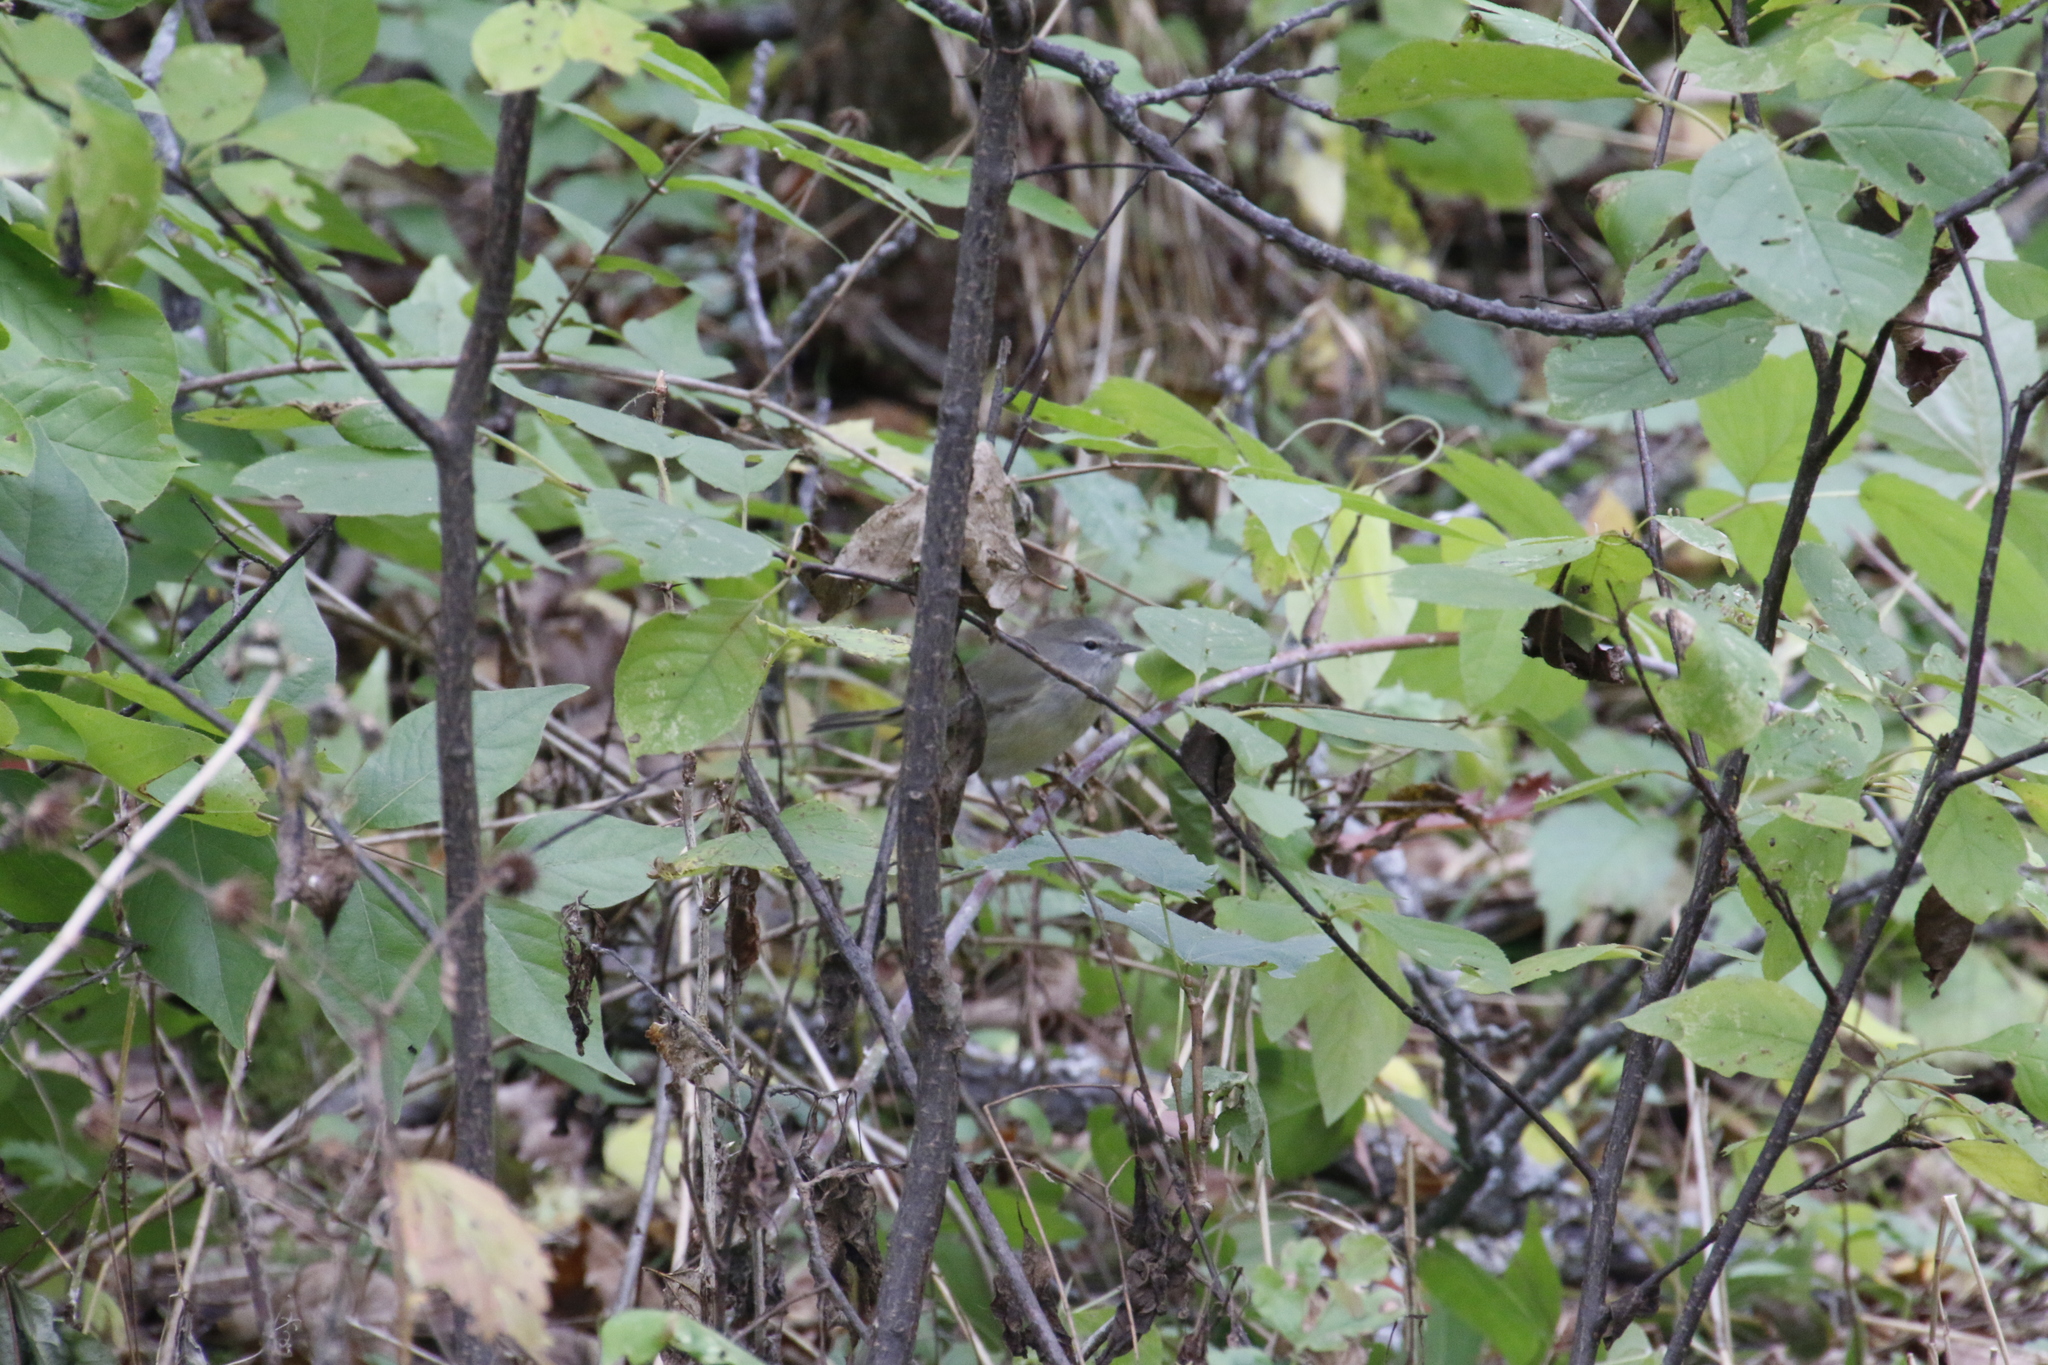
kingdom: Animalia
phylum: Chordata
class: Aves
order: Passeriformes
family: Parulidae
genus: Leiothlypis
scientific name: Leiothlypis celata
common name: Orange-crowned warbler
